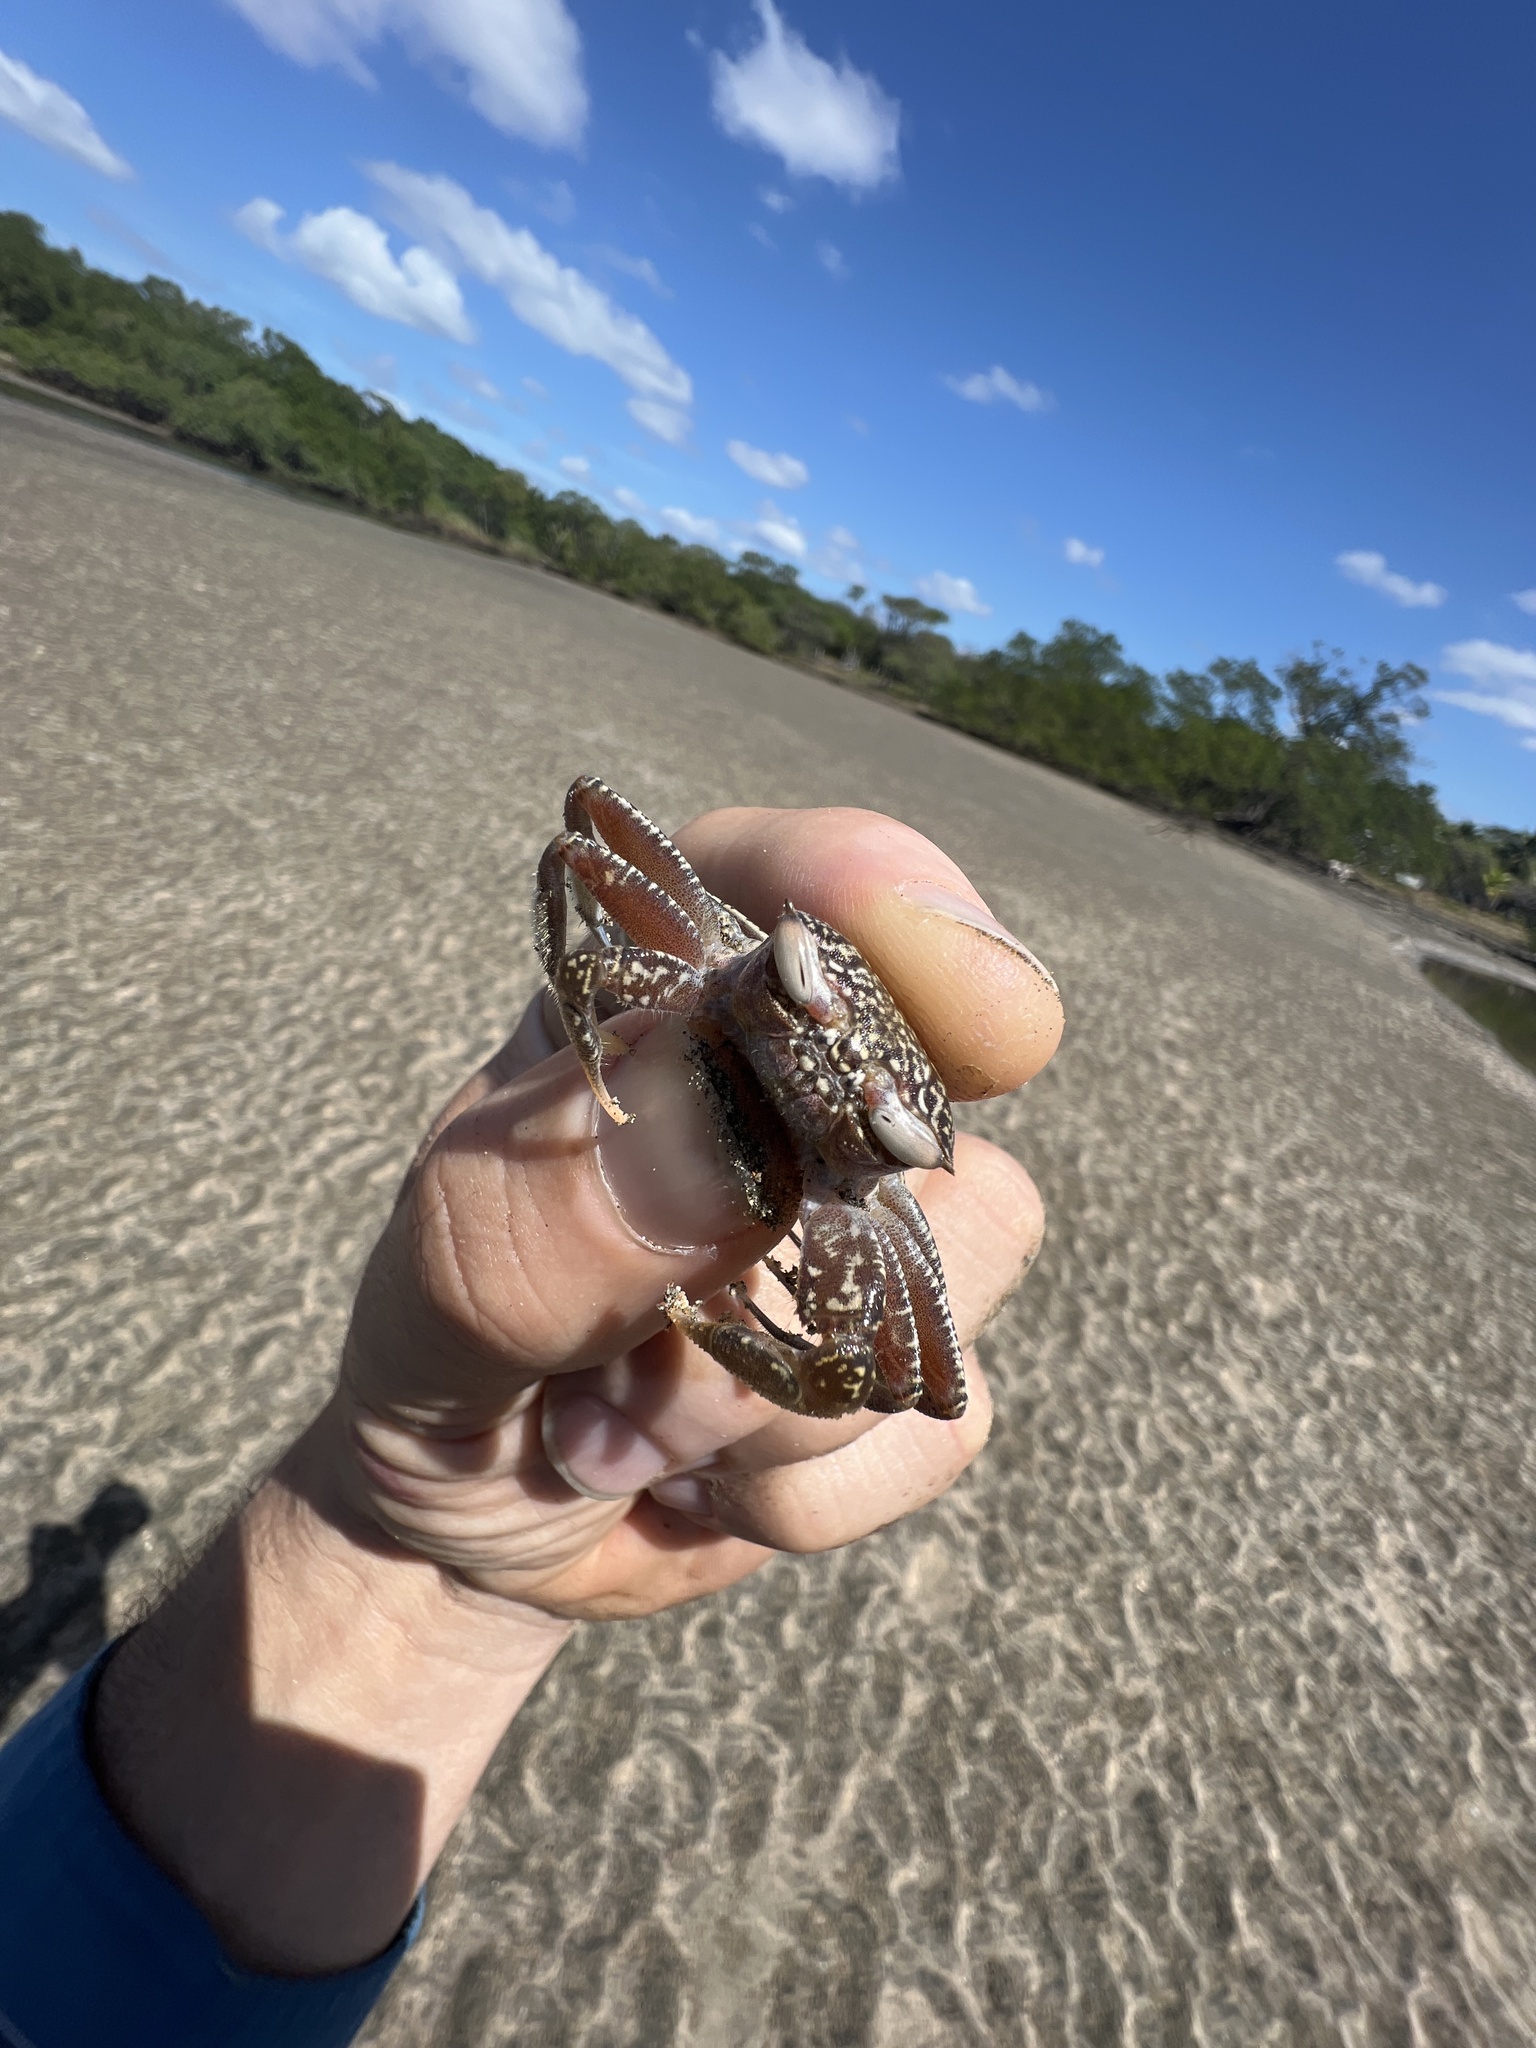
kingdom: Animalia
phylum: Arthropoda
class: Malacostraca
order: Decapoda
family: Ocypodidae
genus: Ocypode
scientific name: Ocypode gaudichaudii
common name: Pacific ghost crab
